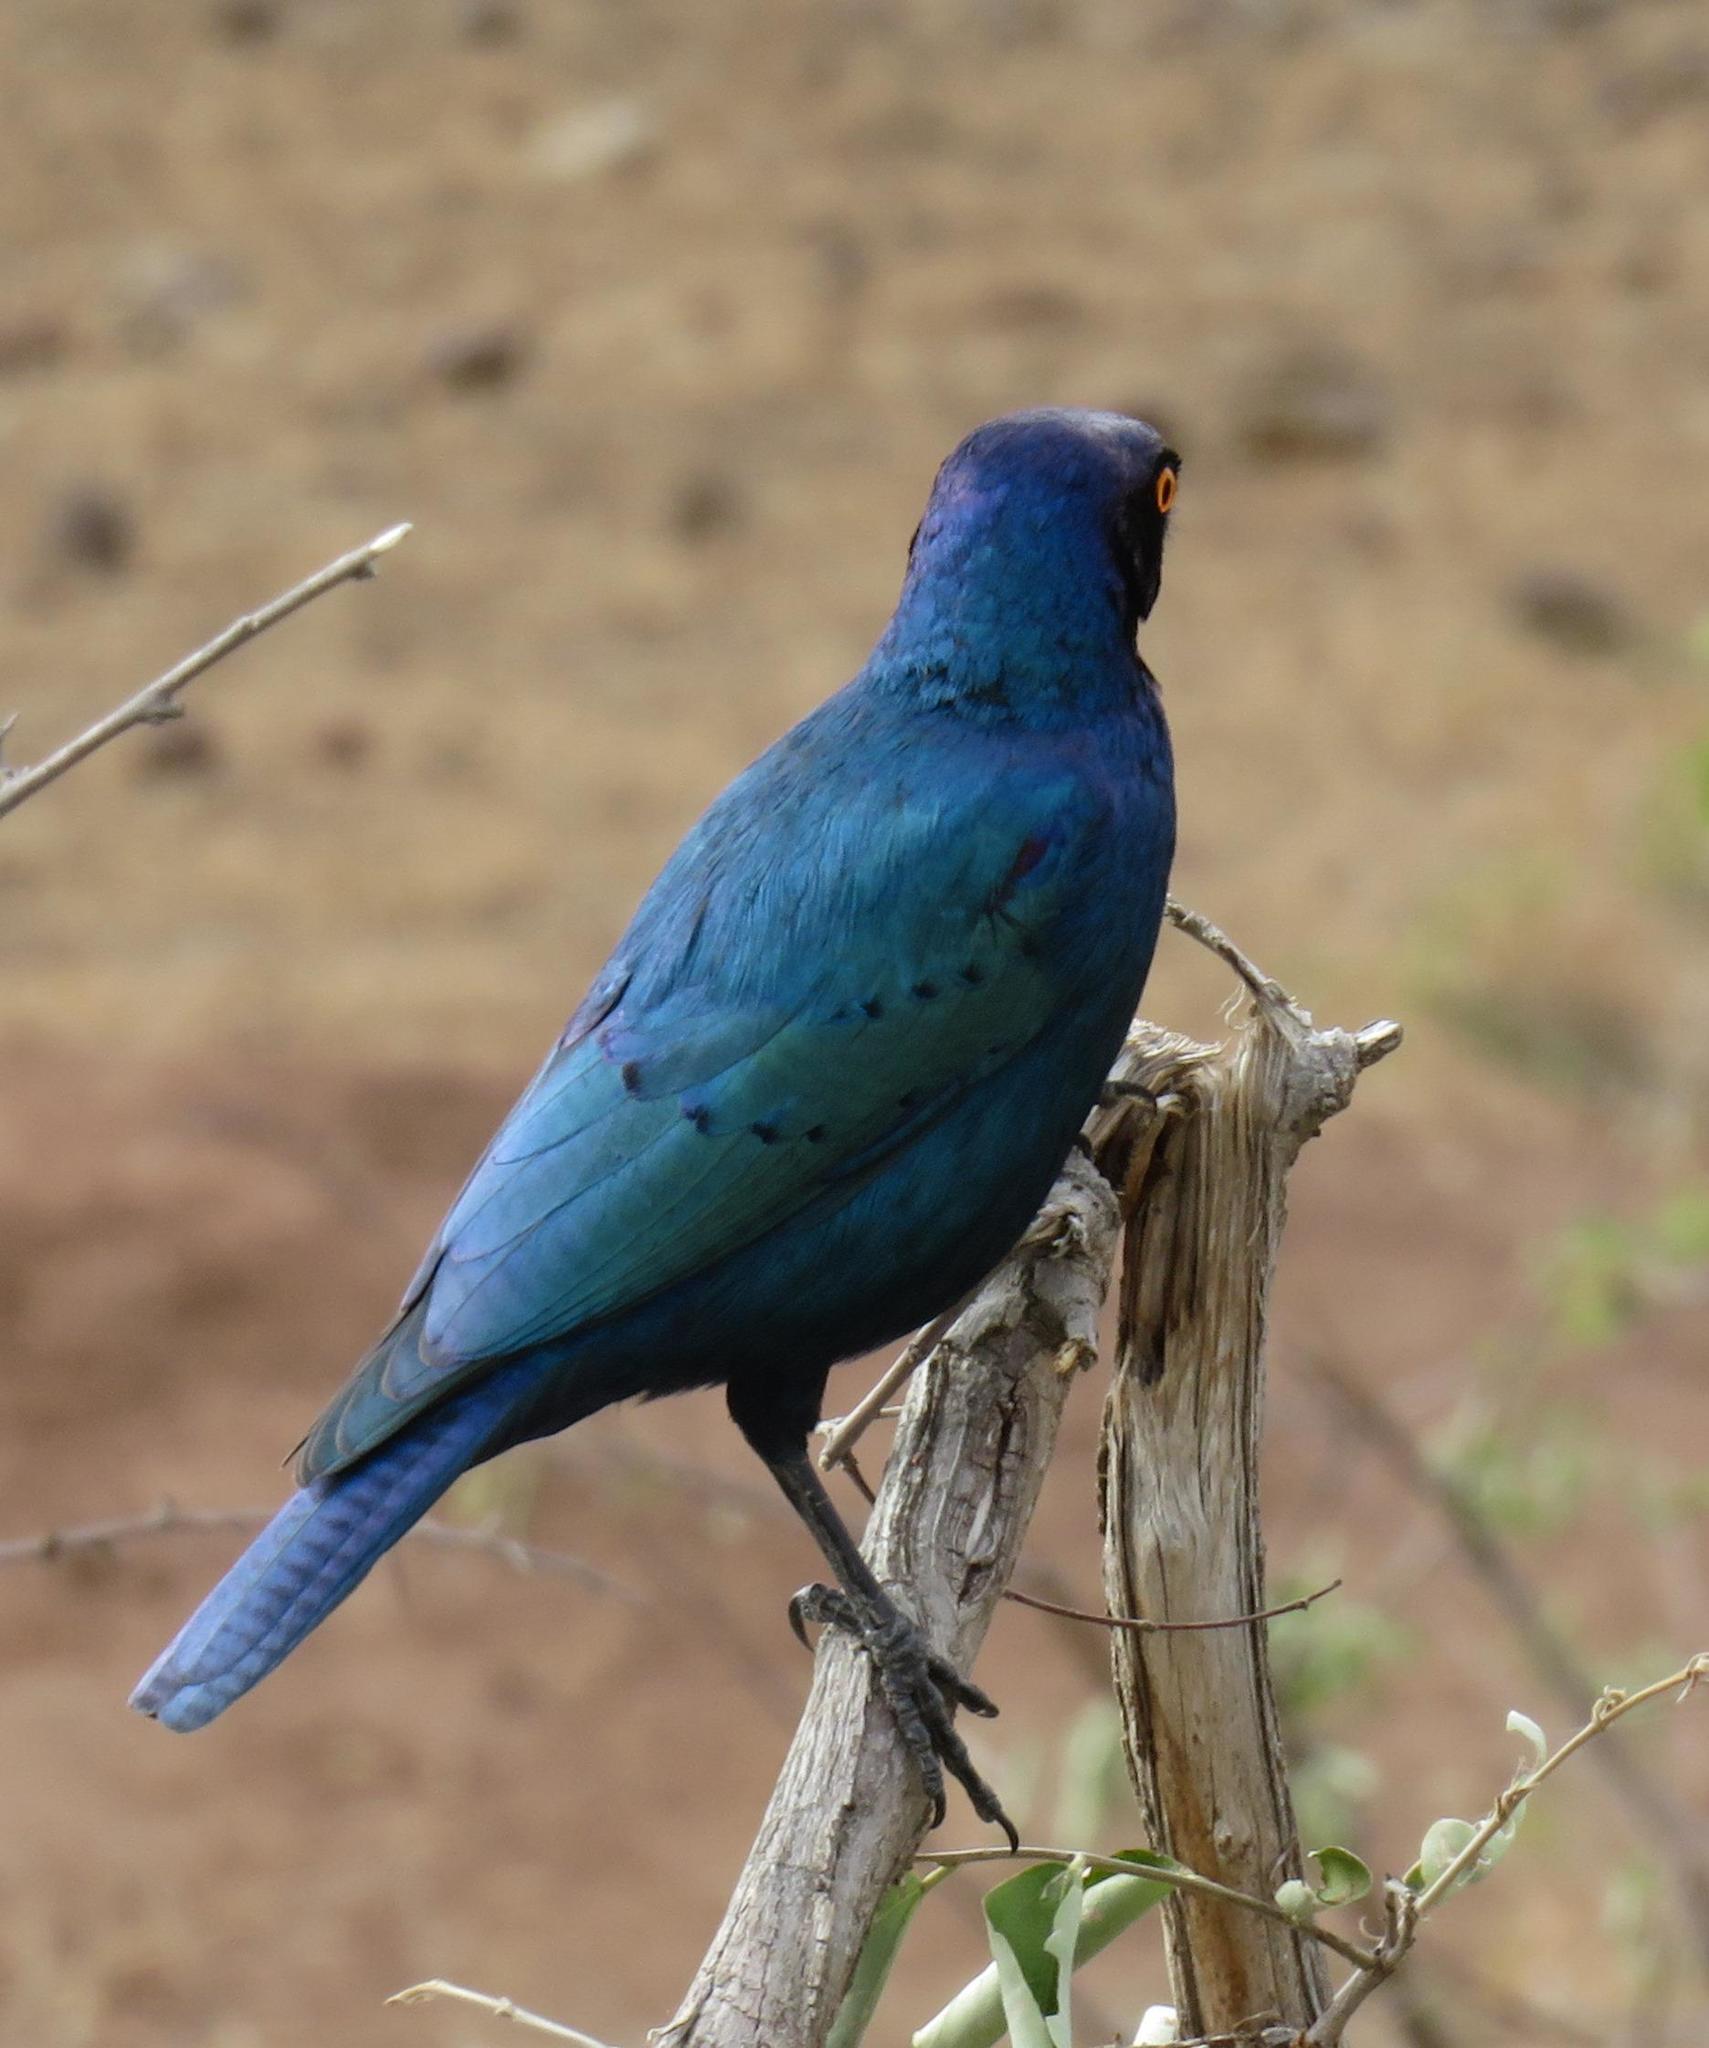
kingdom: Animalia
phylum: Chordata
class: Aves
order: Passeriformes
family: Sturnidae
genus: Lamprotornis
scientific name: Lamprotornis chalybaeus
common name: Greater blue-eared starling
